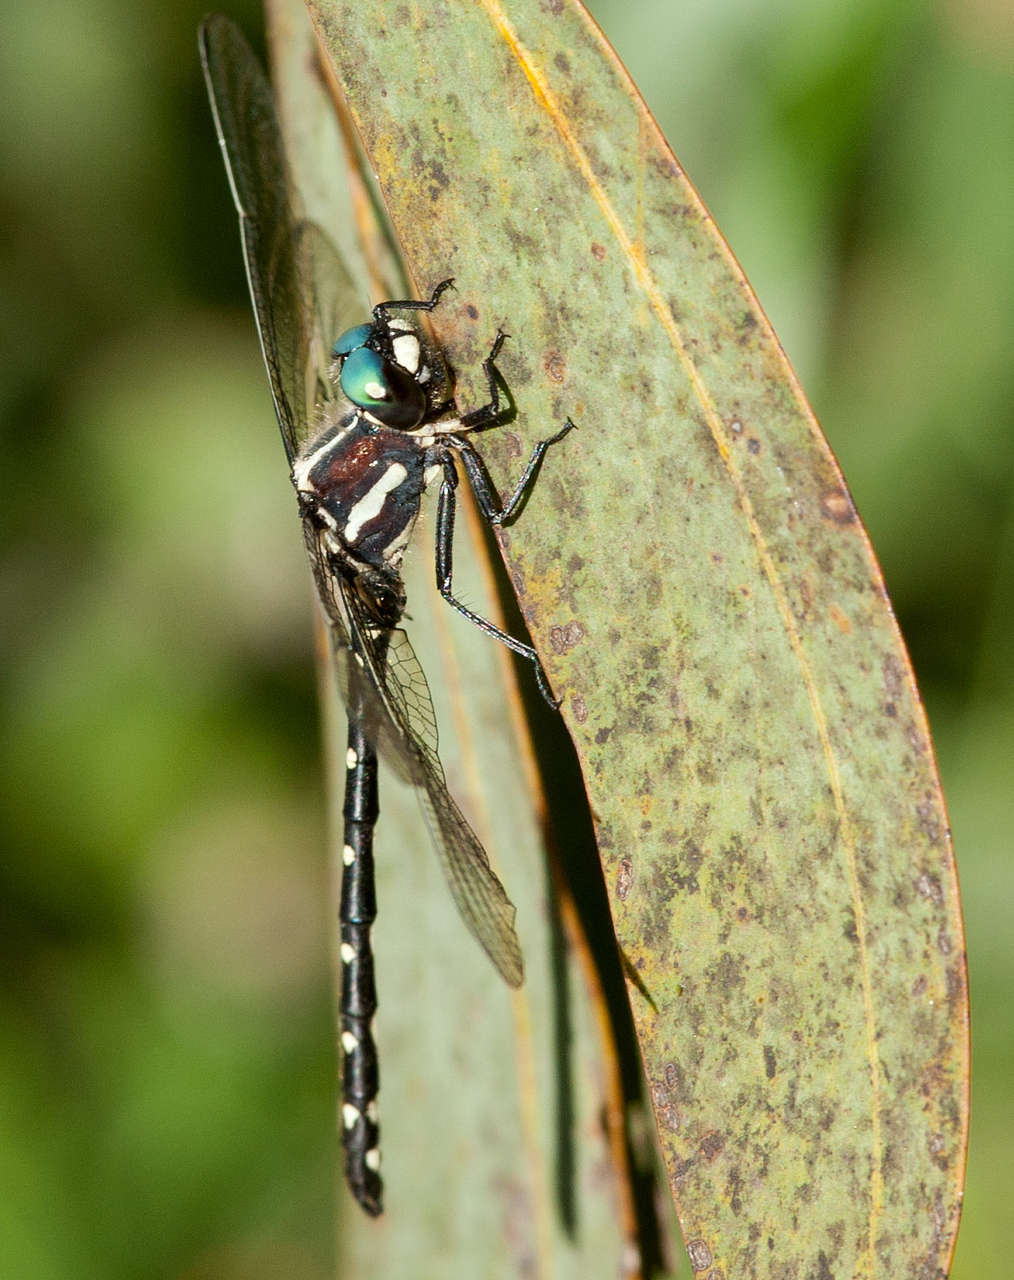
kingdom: Animalia
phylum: Arthropoda
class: Insecta
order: Odonata
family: Synthemistidae
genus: Eusynthemis
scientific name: Eusynthemis guttata
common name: Southern tigertail
